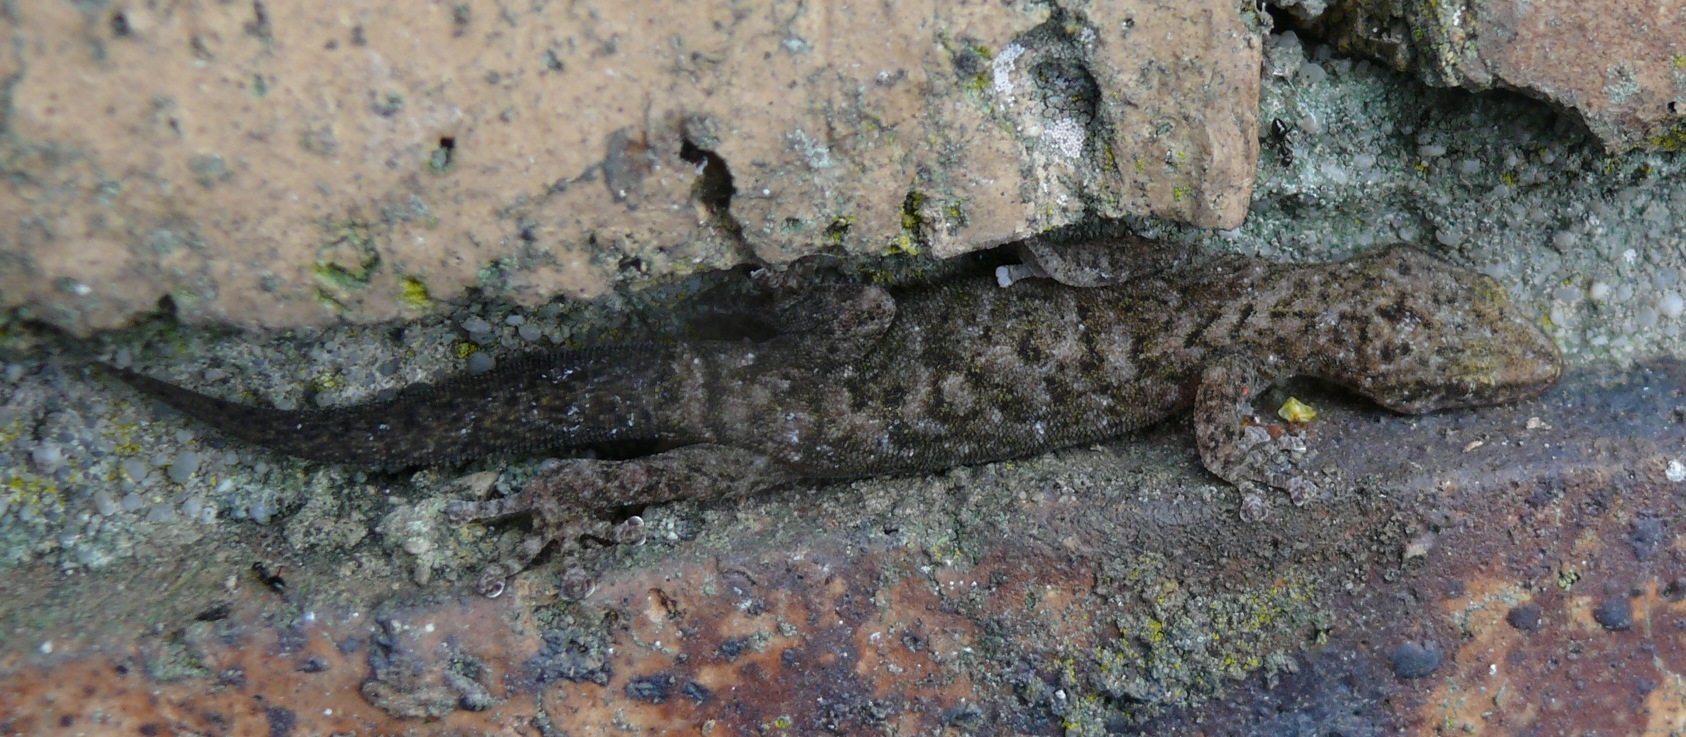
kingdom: Animalia
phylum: Chordata
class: Squamata
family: Gekkonidae
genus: Afrogecko
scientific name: Afrogecko porphyreus
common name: Marbled leaf-toed gecko
